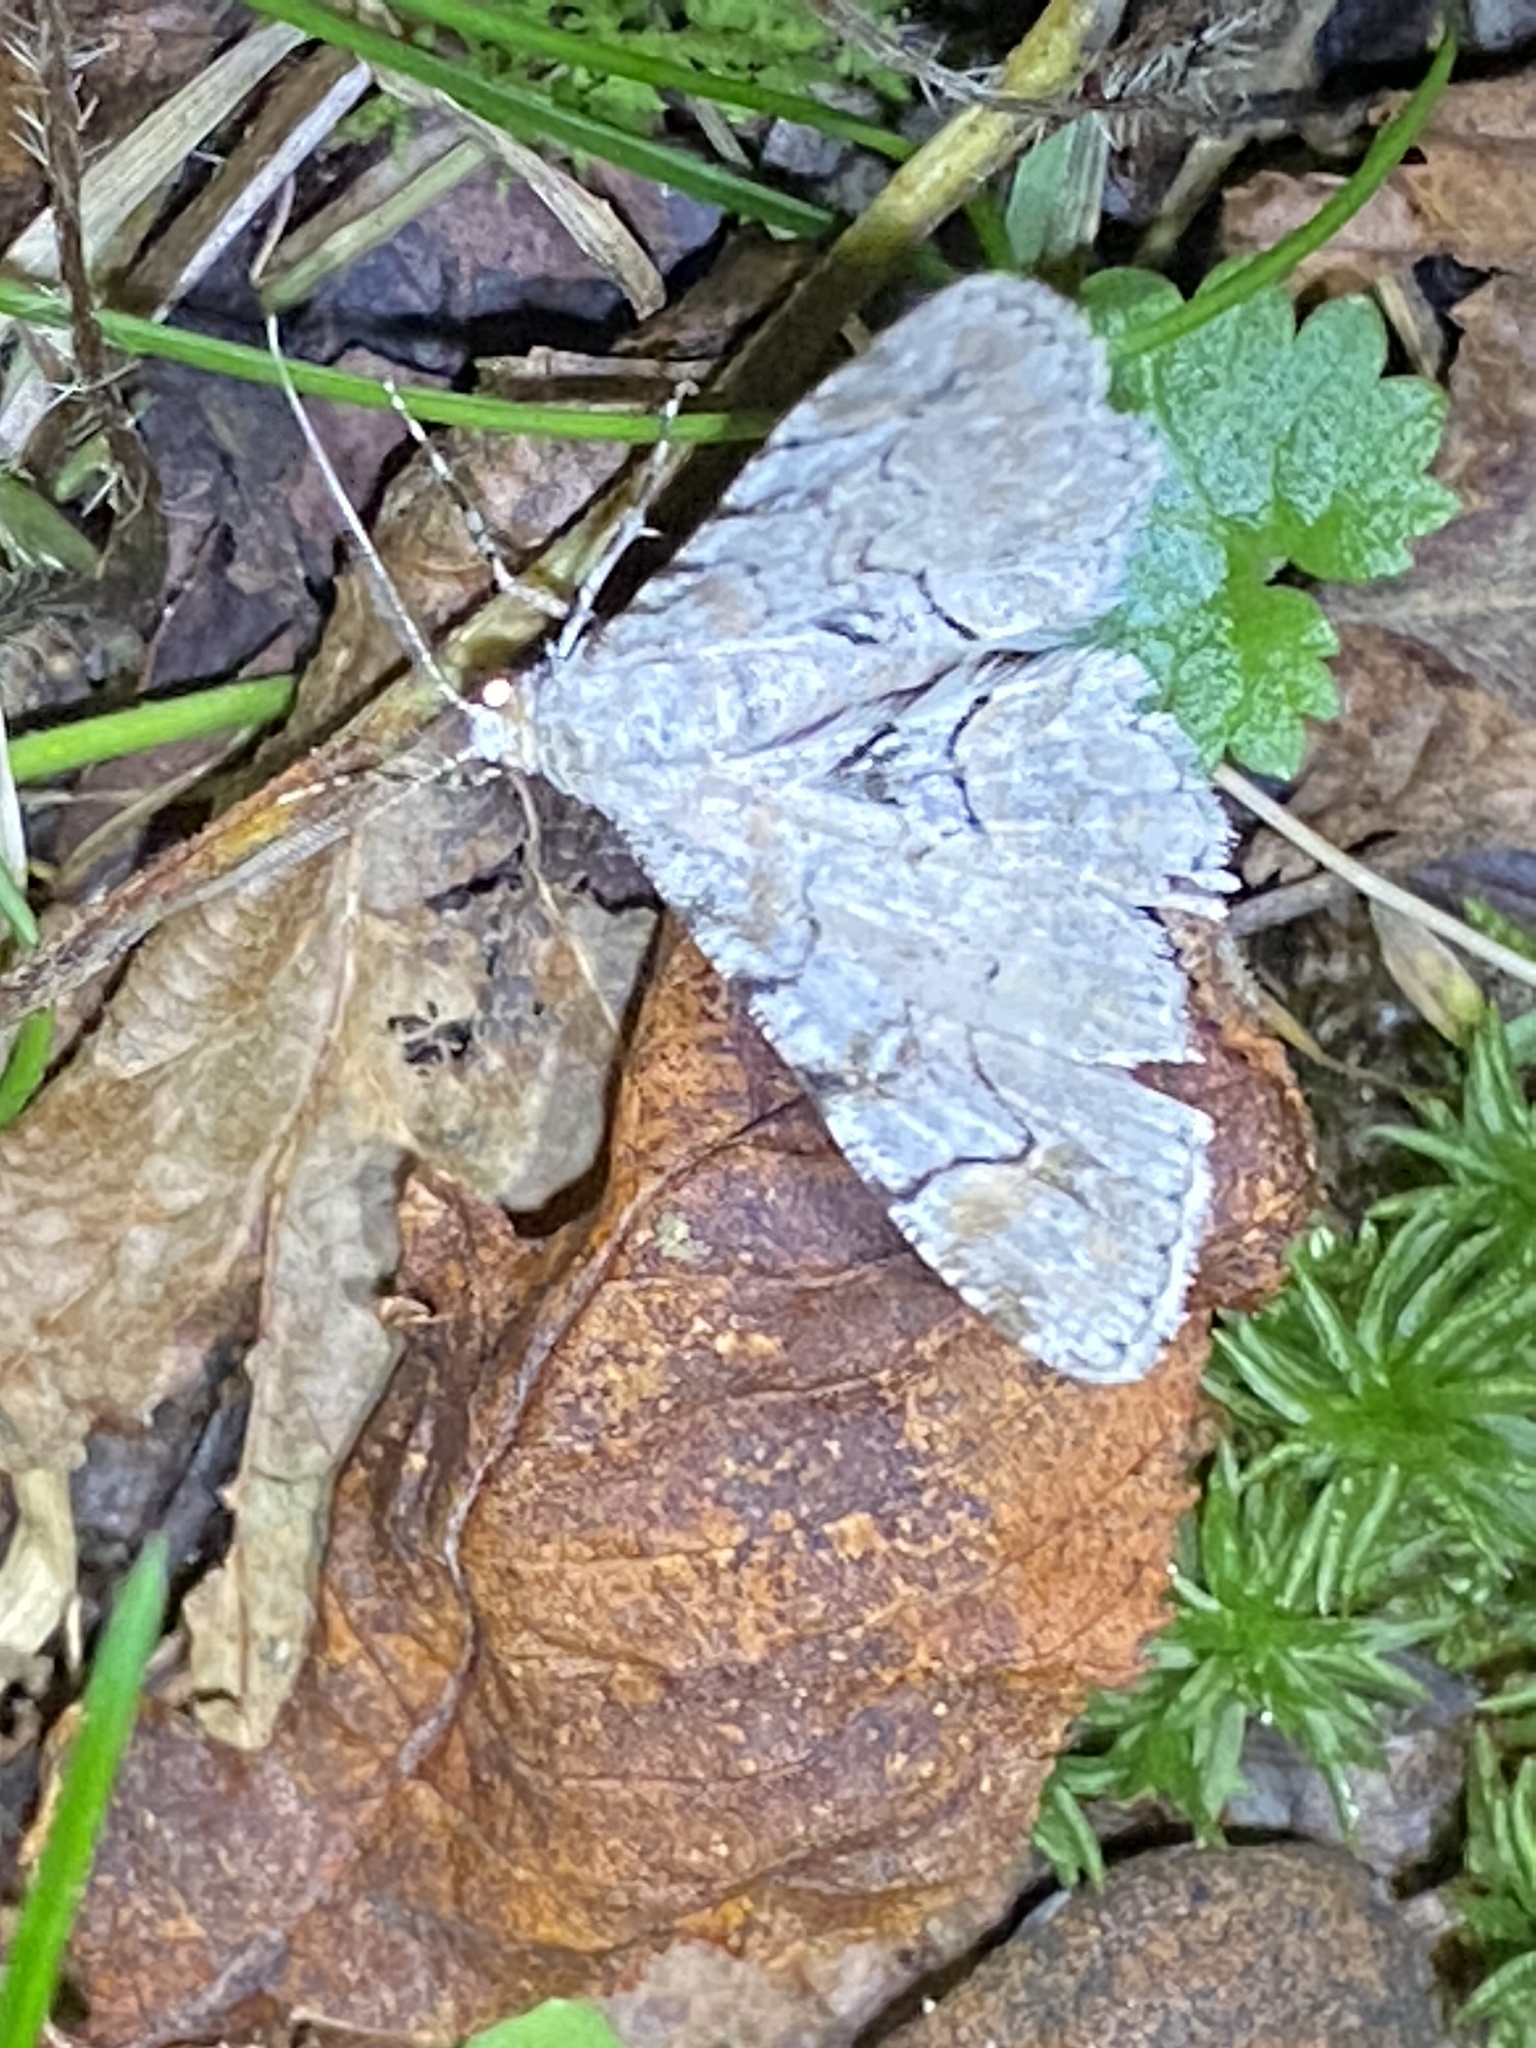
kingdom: Animalia
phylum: Arthropoda
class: Insecta
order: Lepidoptera
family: Geometridae
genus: Iridopsis
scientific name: Iridopsis larvaria
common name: Bent-line gray
